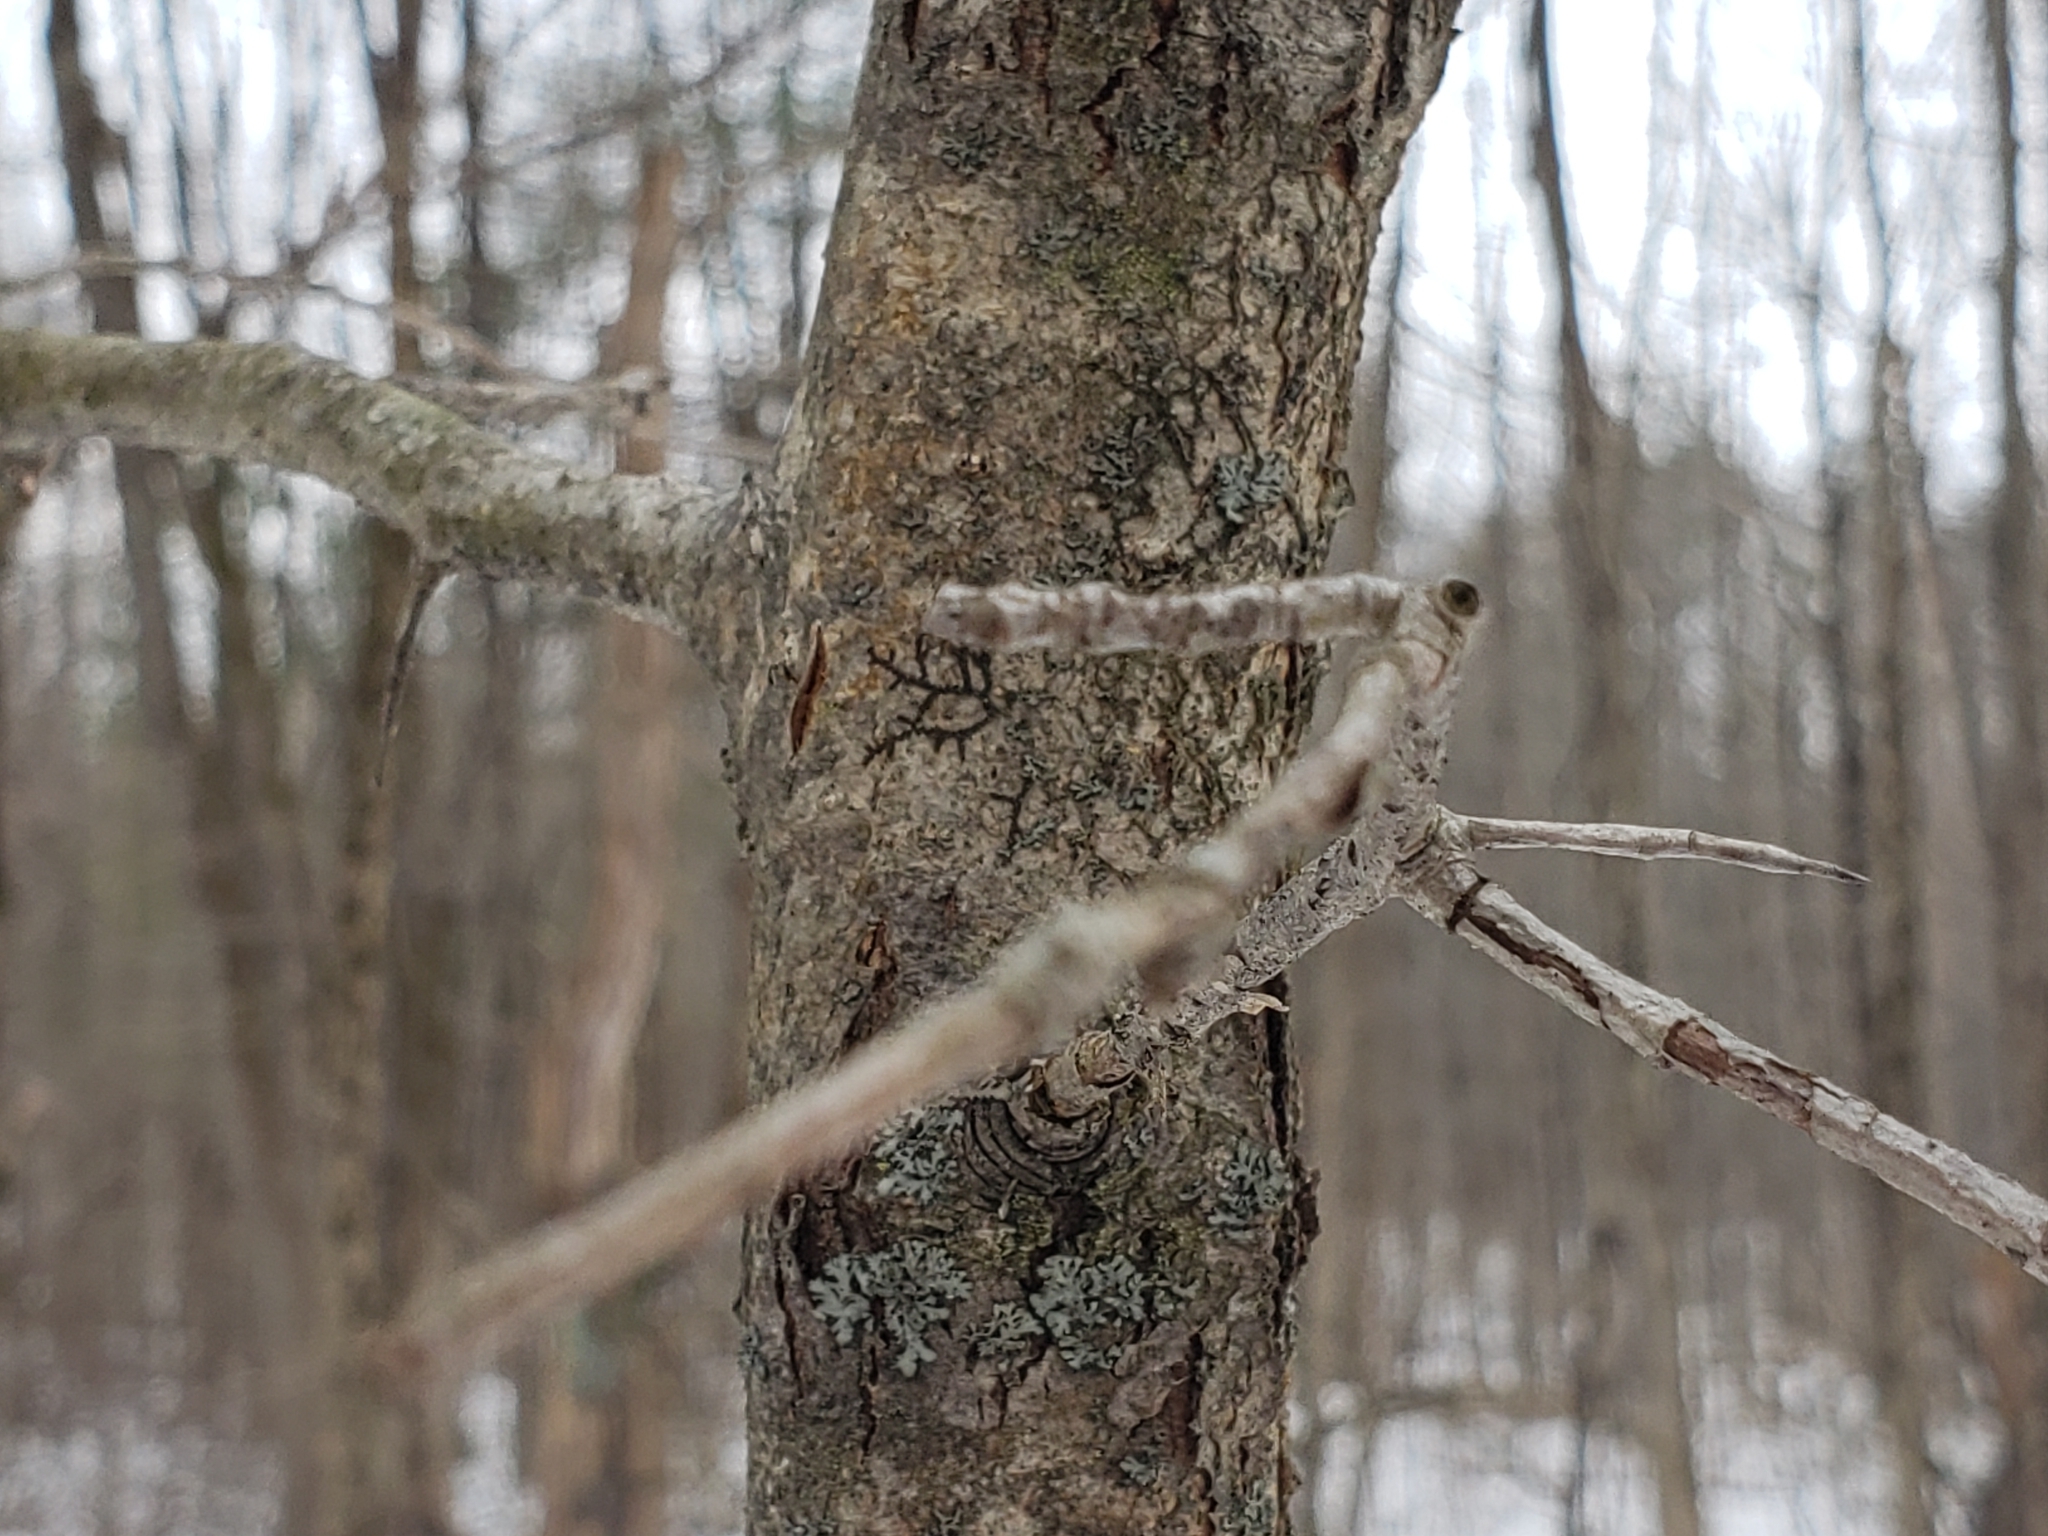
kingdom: Plantae
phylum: Tracheophyta
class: Magnoliopsida
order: Rosales
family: Rosaceae
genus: Crataegus
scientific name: Crataegus
